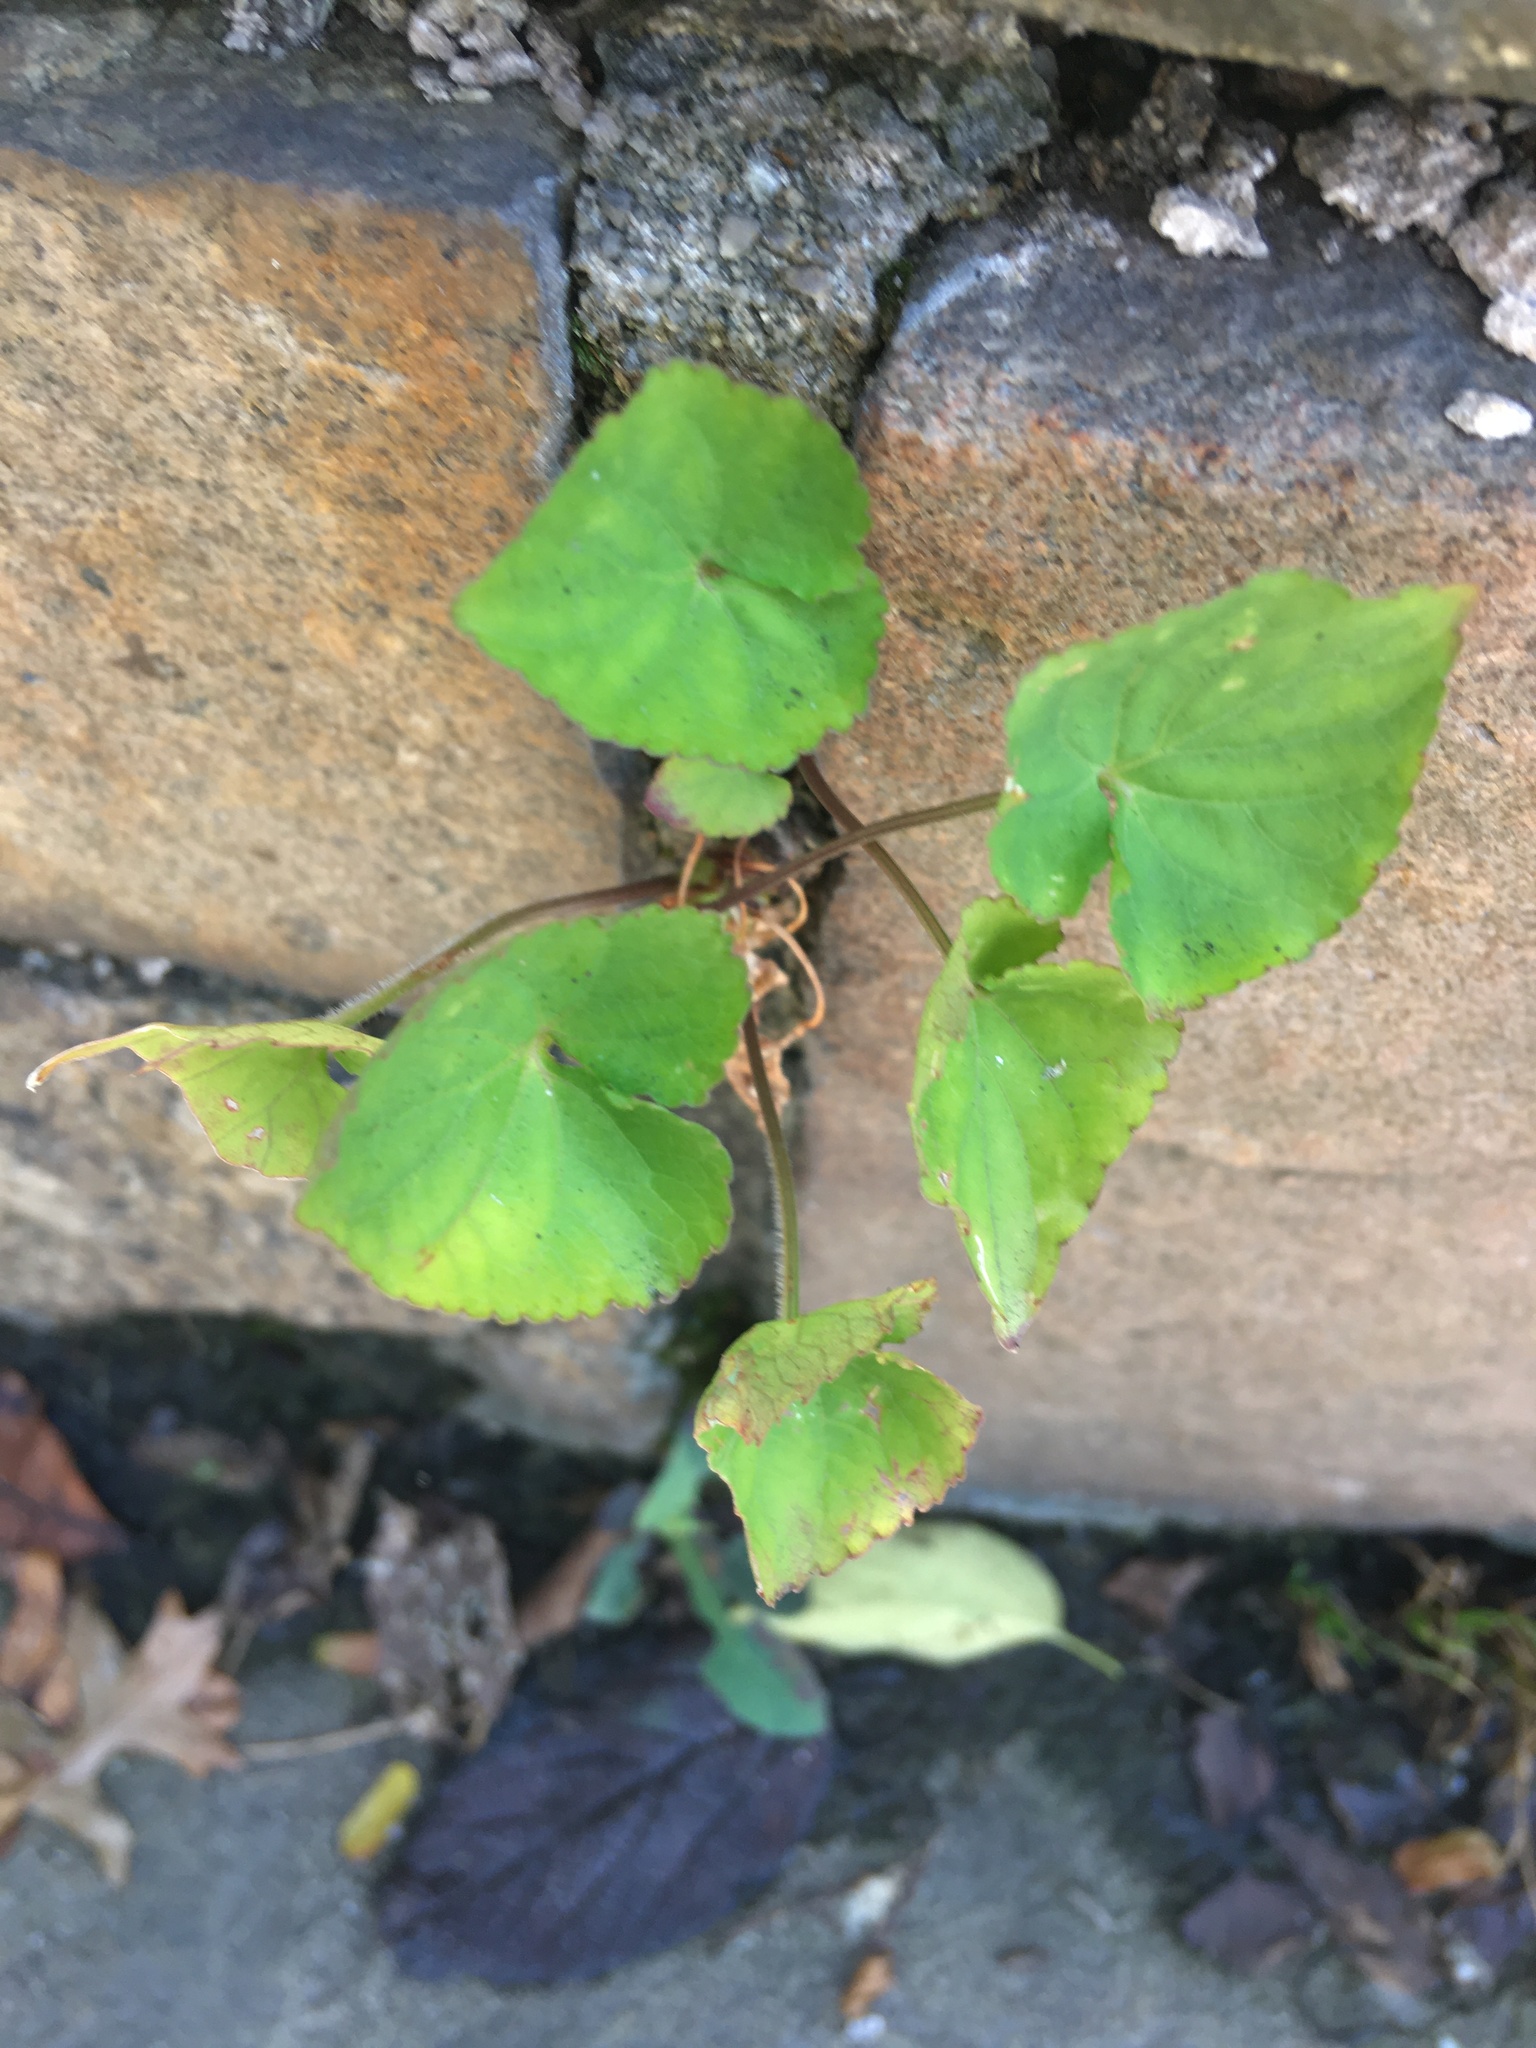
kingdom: Plantae
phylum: Tracheophyta
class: Magnoliopsida
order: Malpighiales
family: Violaceae
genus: Viola
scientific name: Viola sororia
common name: Dooryard violet
